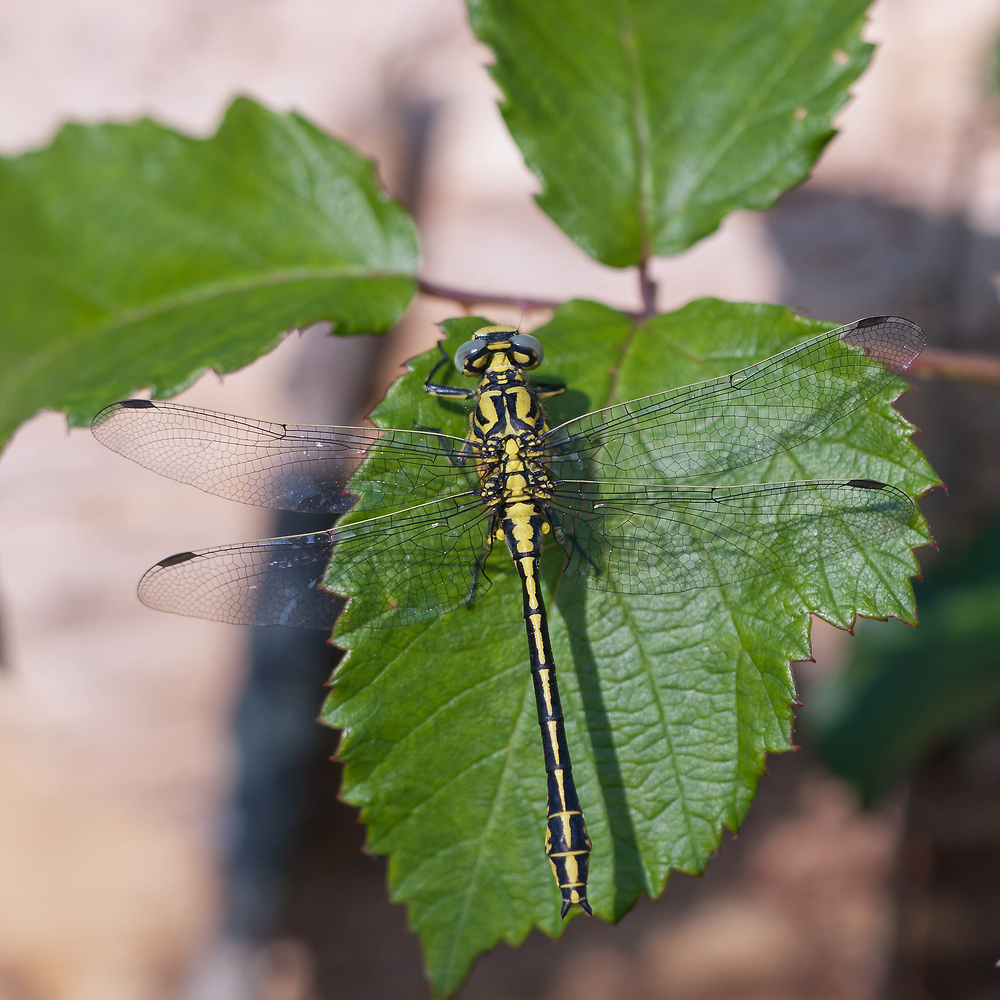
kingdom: Animalia
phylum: Arthropoda
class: Insecta
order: Odonata
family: Gomphidae
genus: Gomphus
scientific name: Gomphus simillimus
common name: Yellow clubtail
